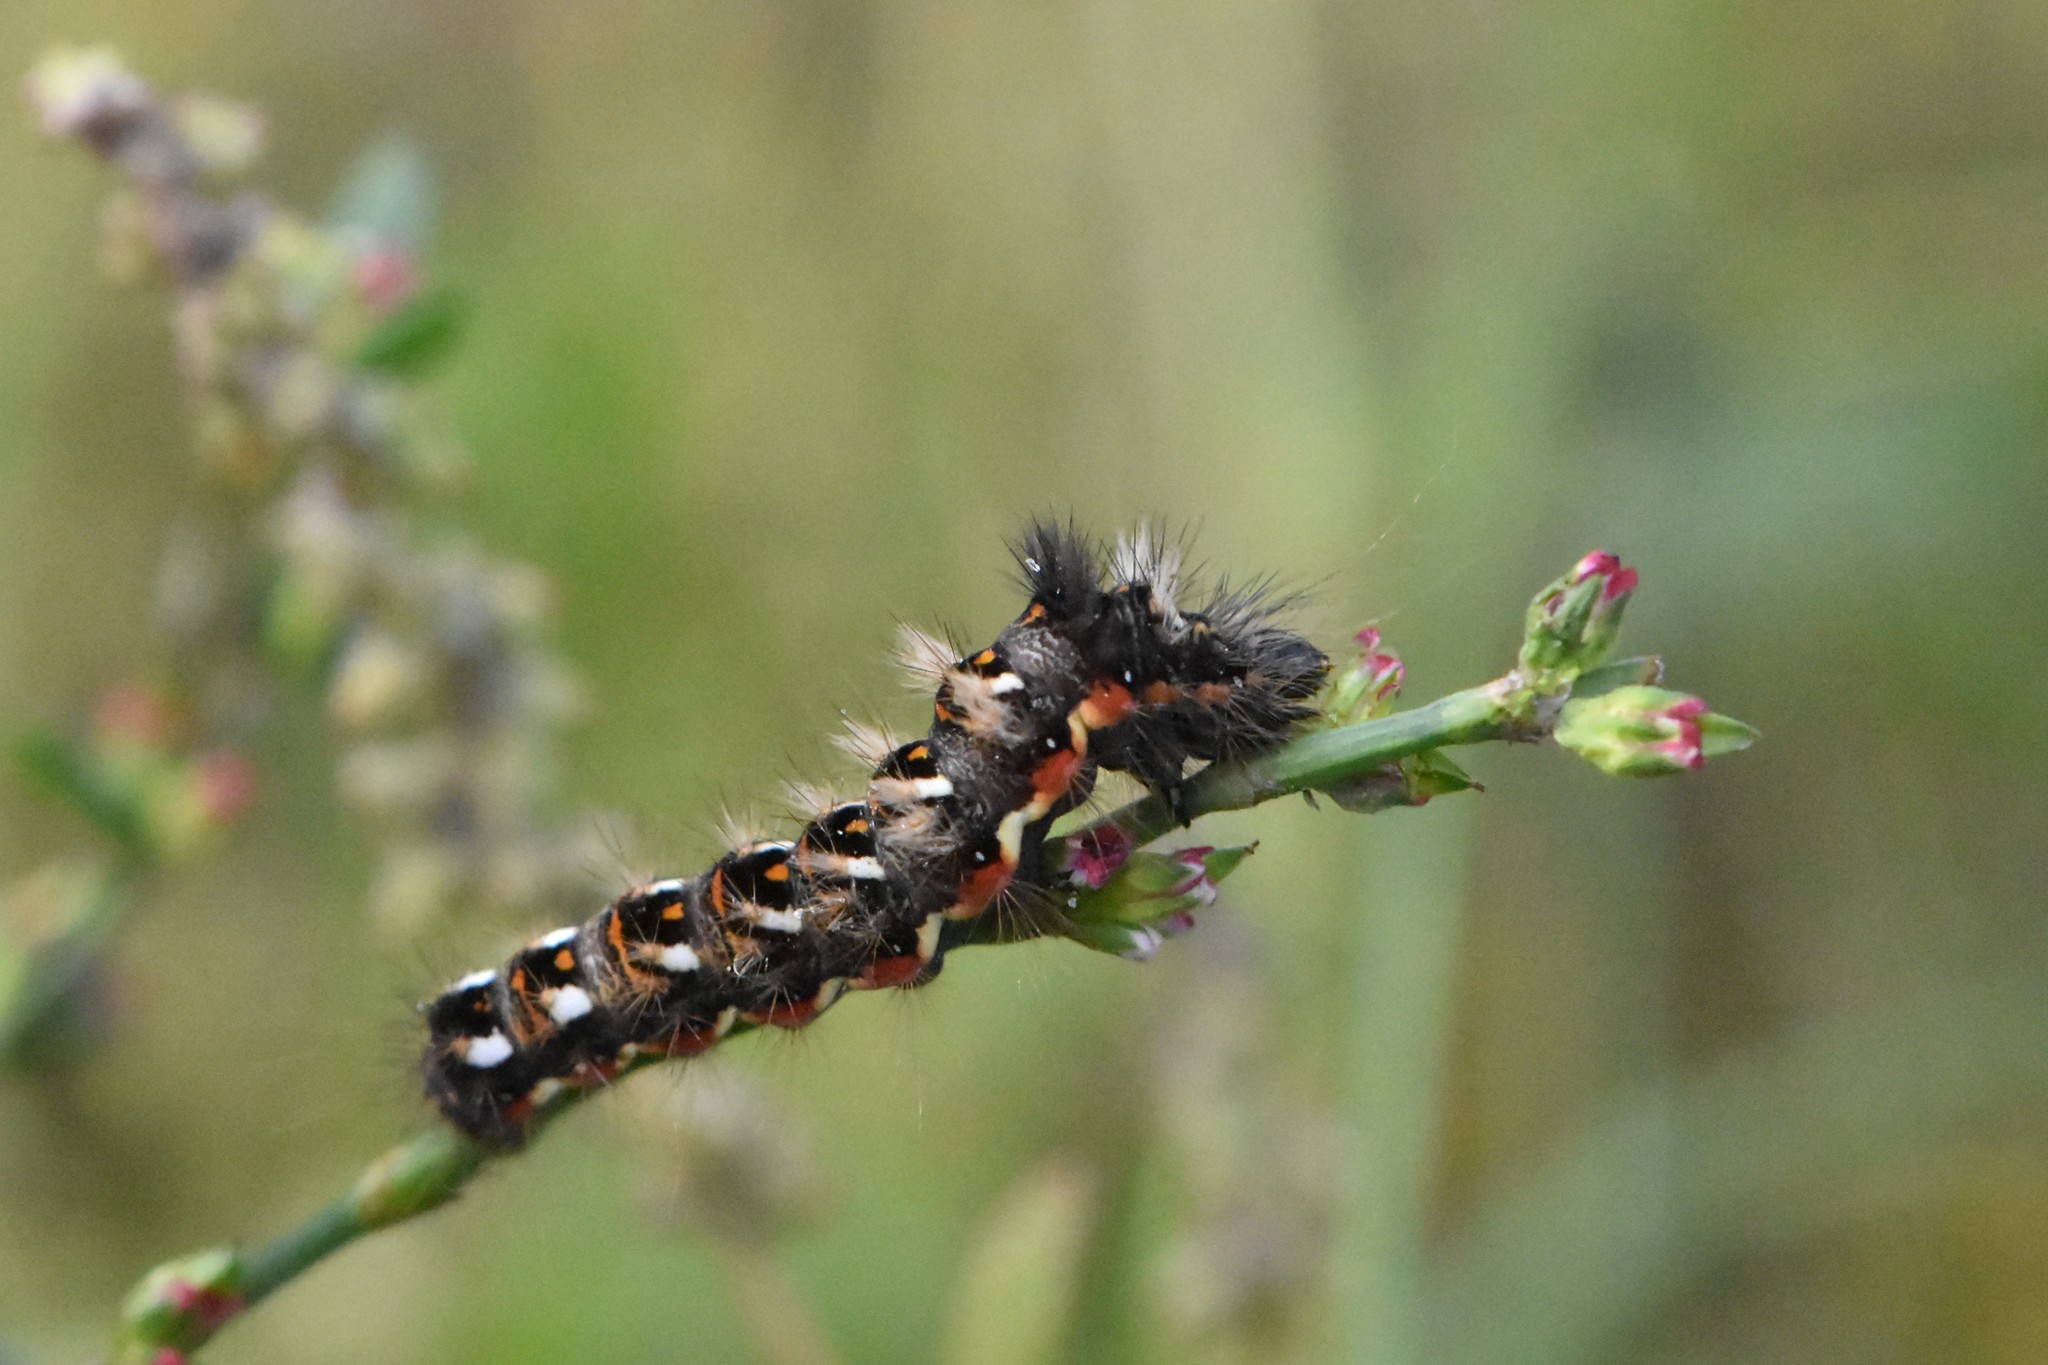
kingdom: Animalia
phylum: Arthropoda
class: Insecta
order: Lepidoptera
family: Noctuidae
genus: Acronicta
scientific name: Acronicta rumicis
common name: Knot grass
